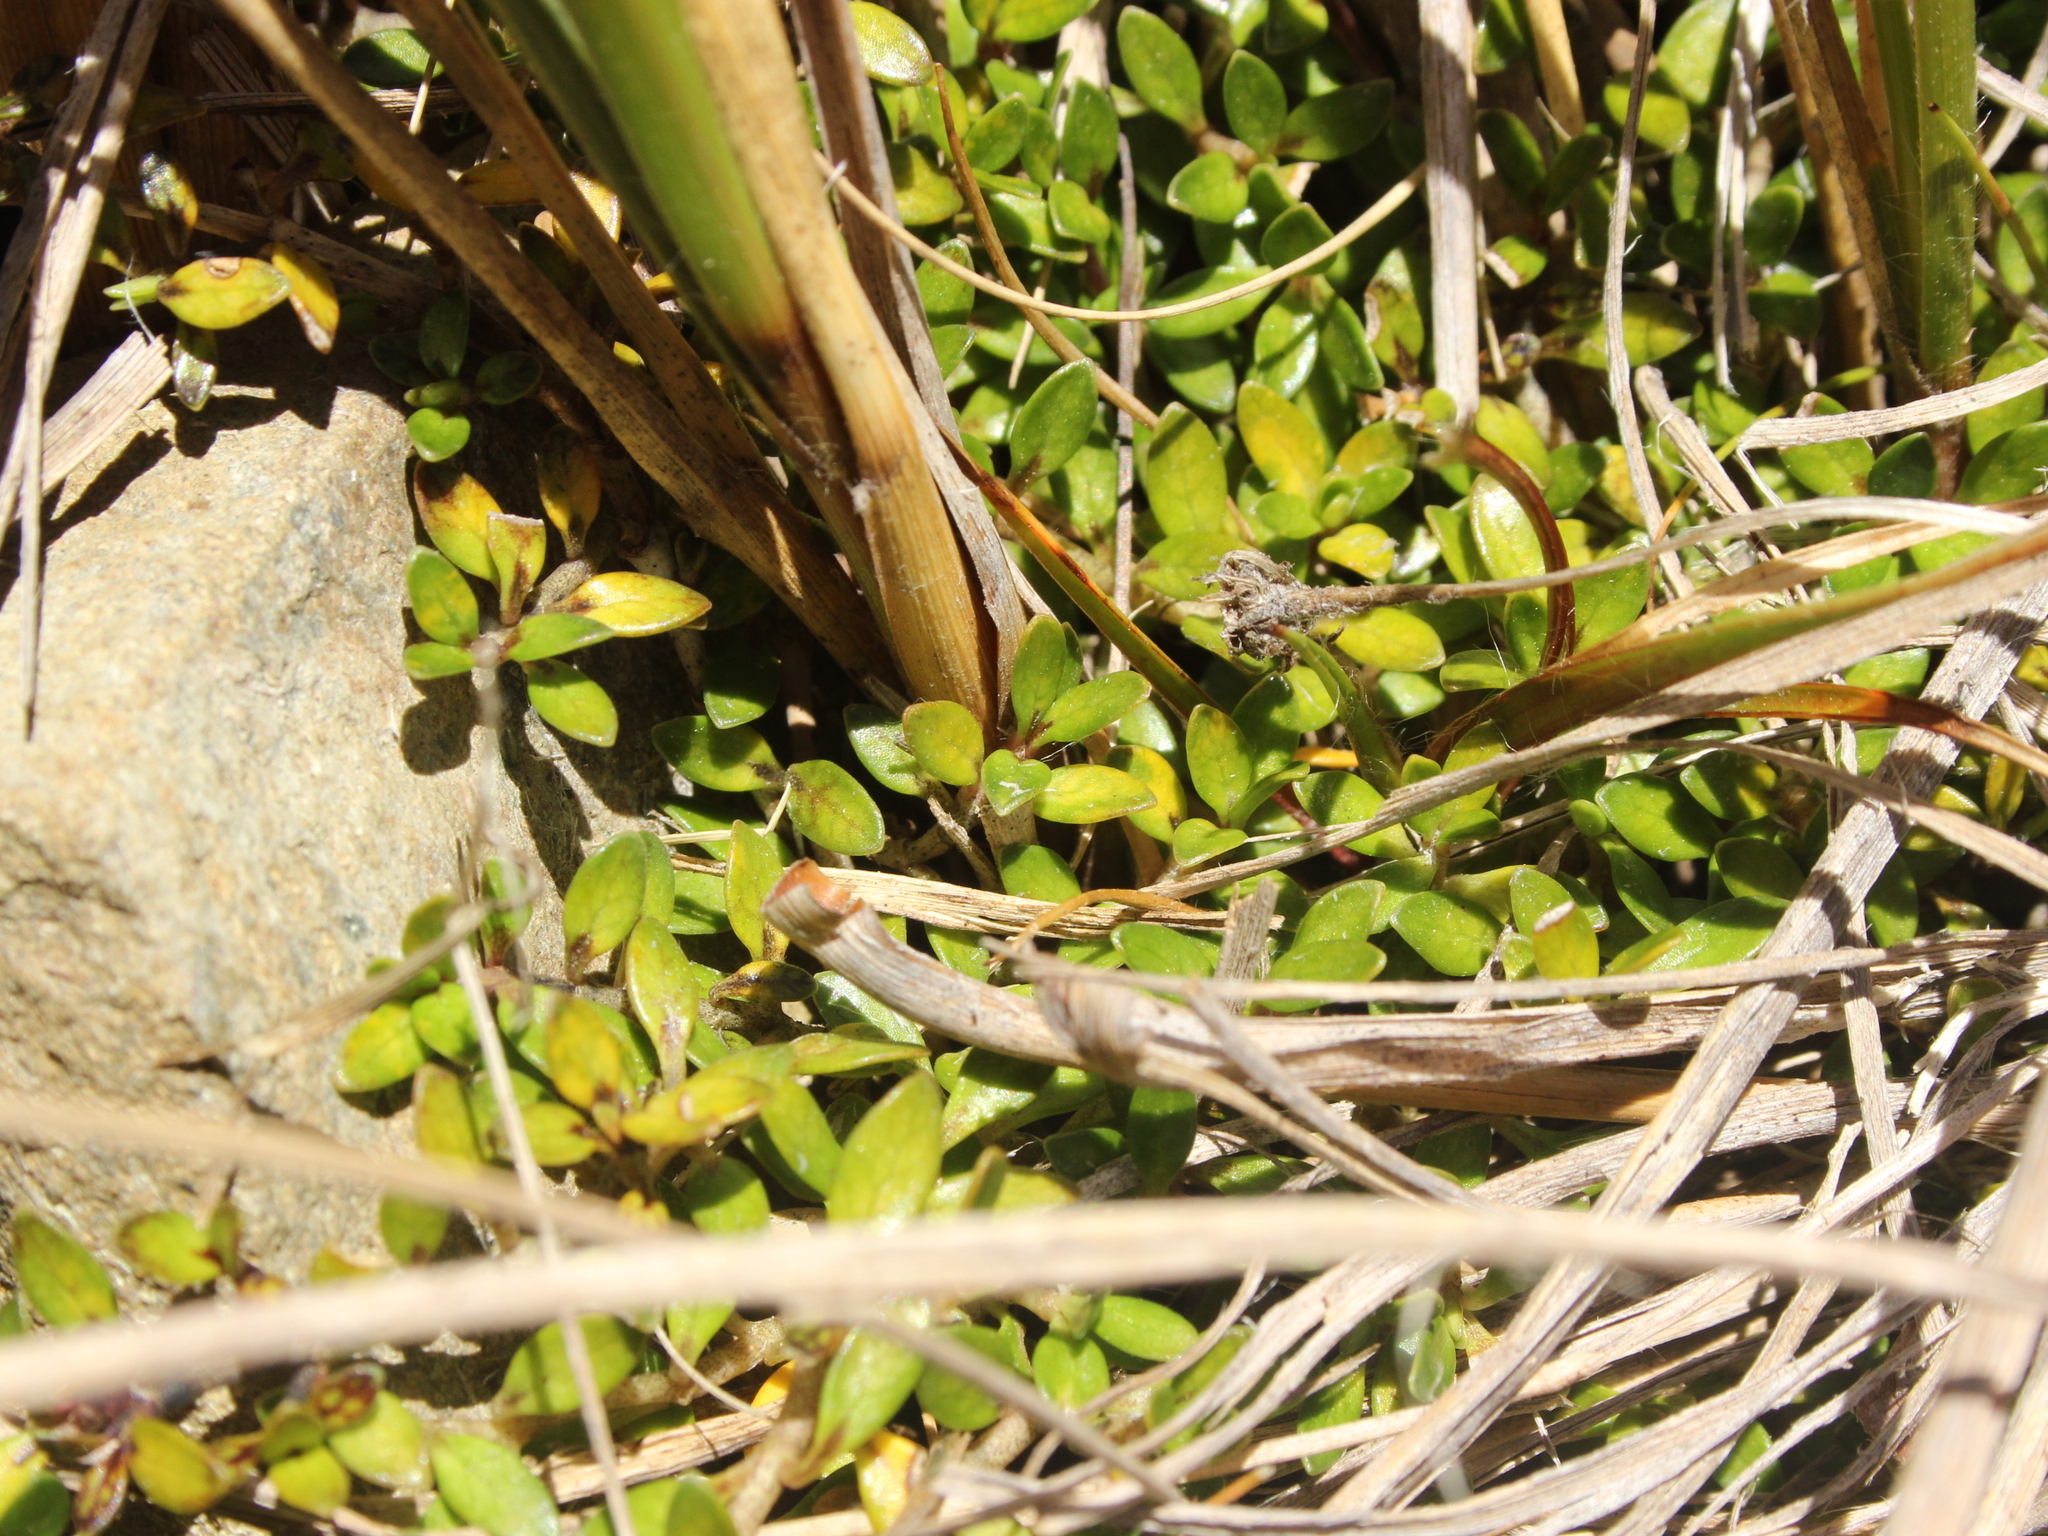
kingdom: Plantae
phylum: Tracheophyta
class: Magnoliopsida
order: Gentianales
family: Rubiaceae
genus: Coprosma
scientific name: Coprosma perpusilla
